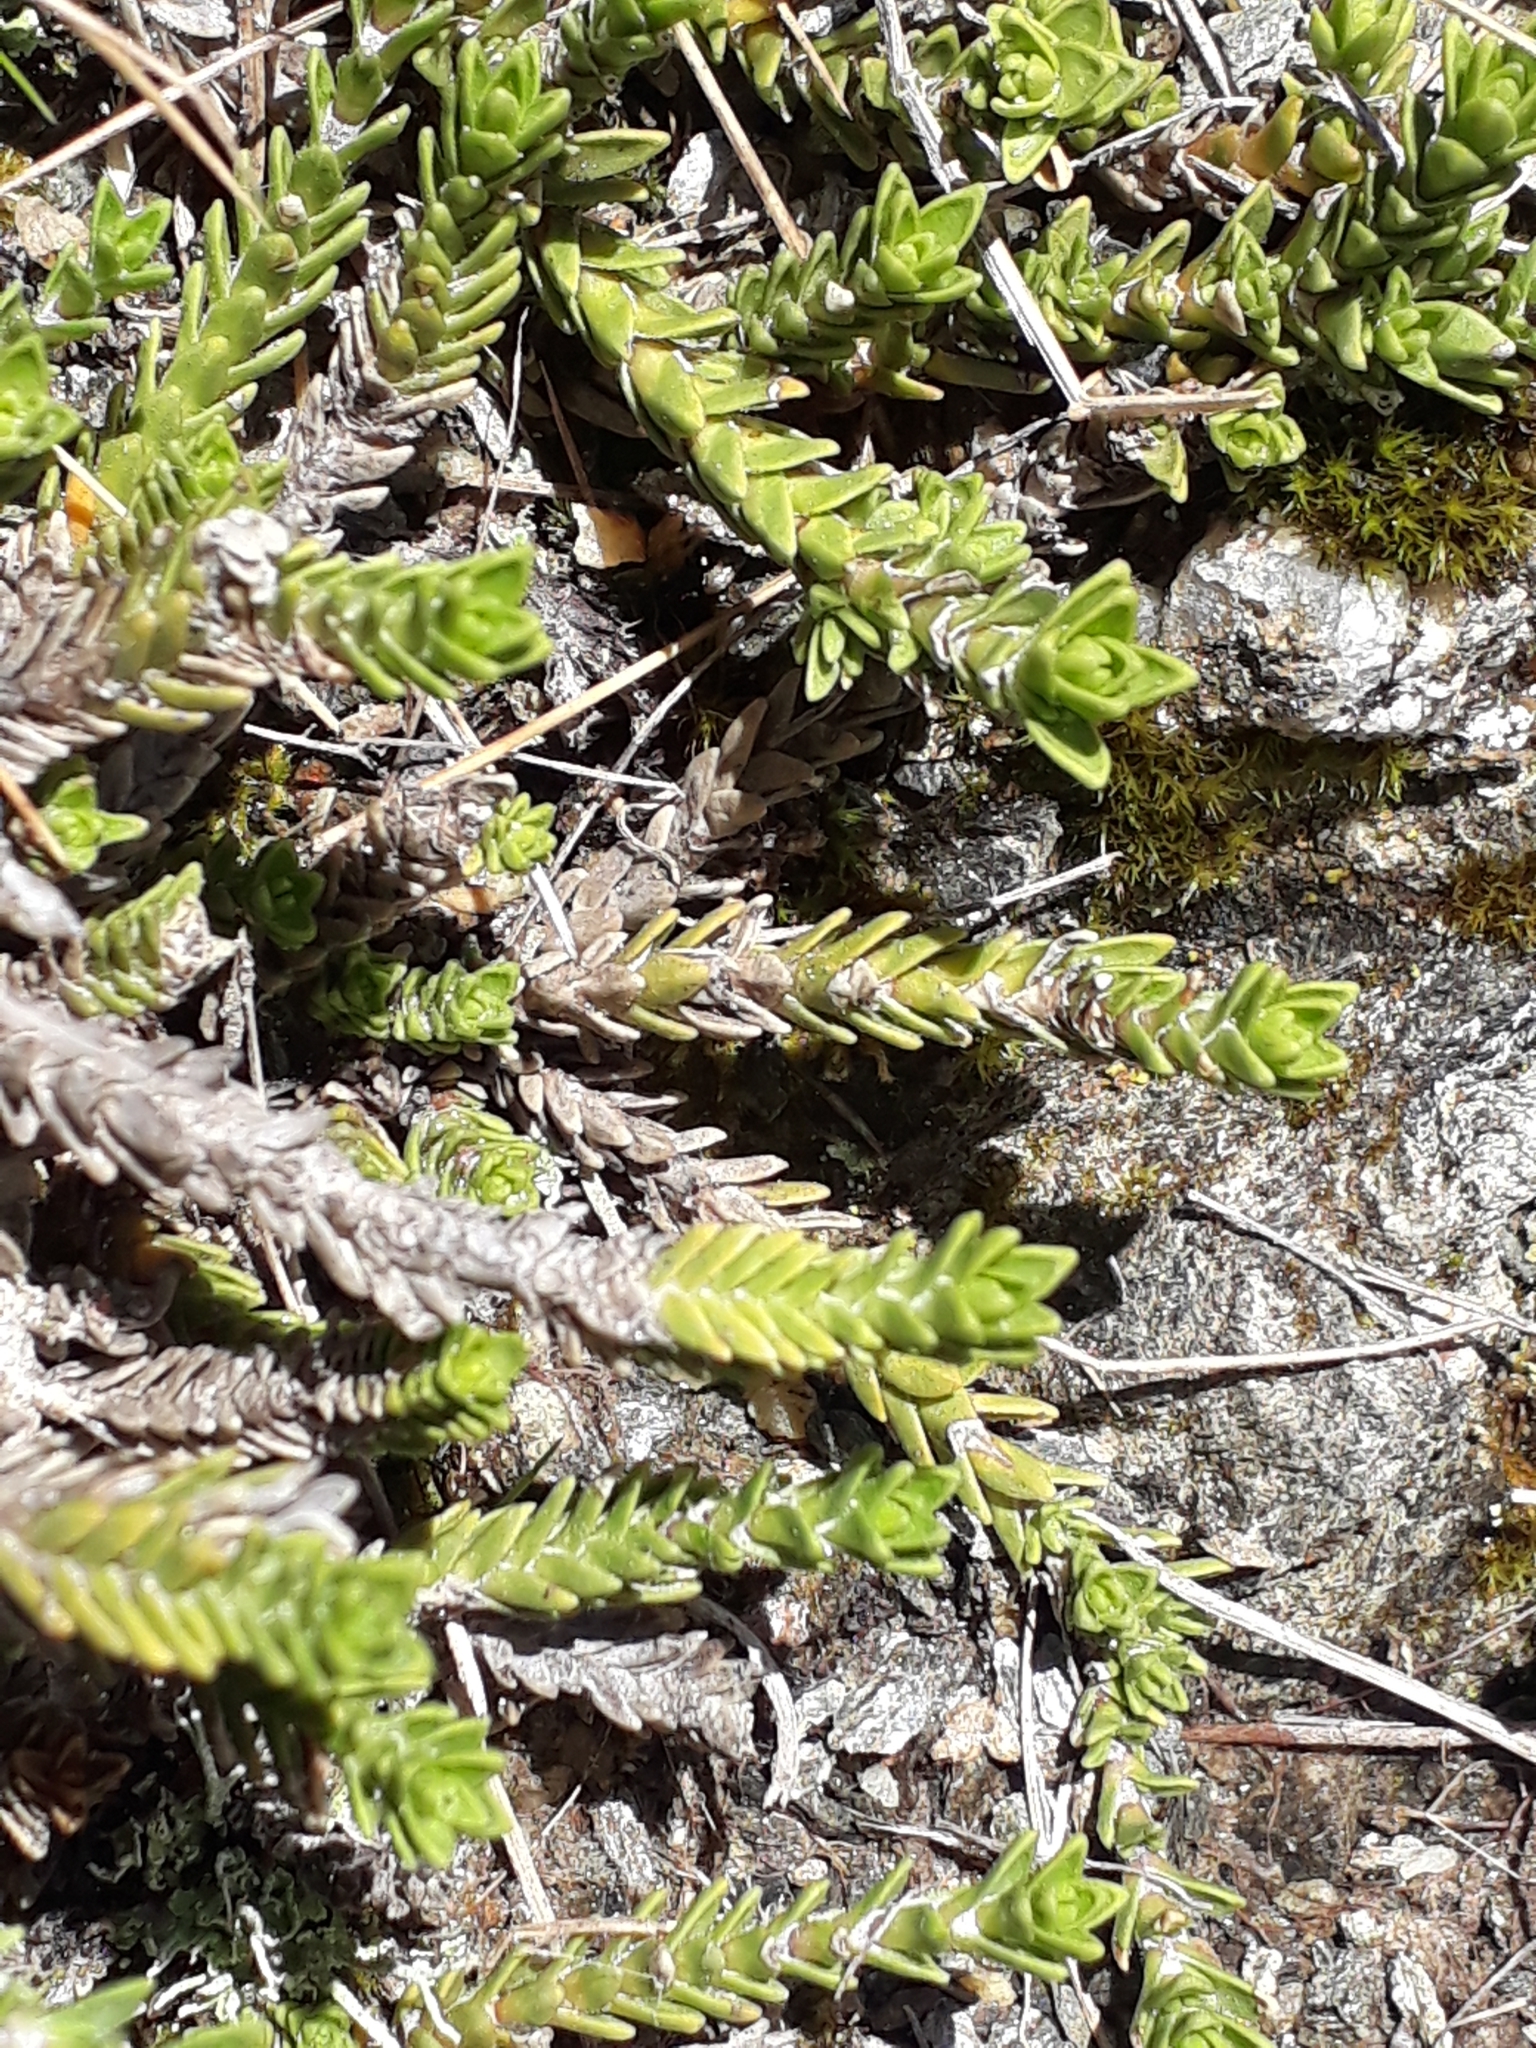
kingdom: Plantae
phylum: Tracheophyta
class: Magnoliopsida
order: Lamiales
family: Plantaginaceae
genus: Veronica
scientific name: Veronica densifolia
